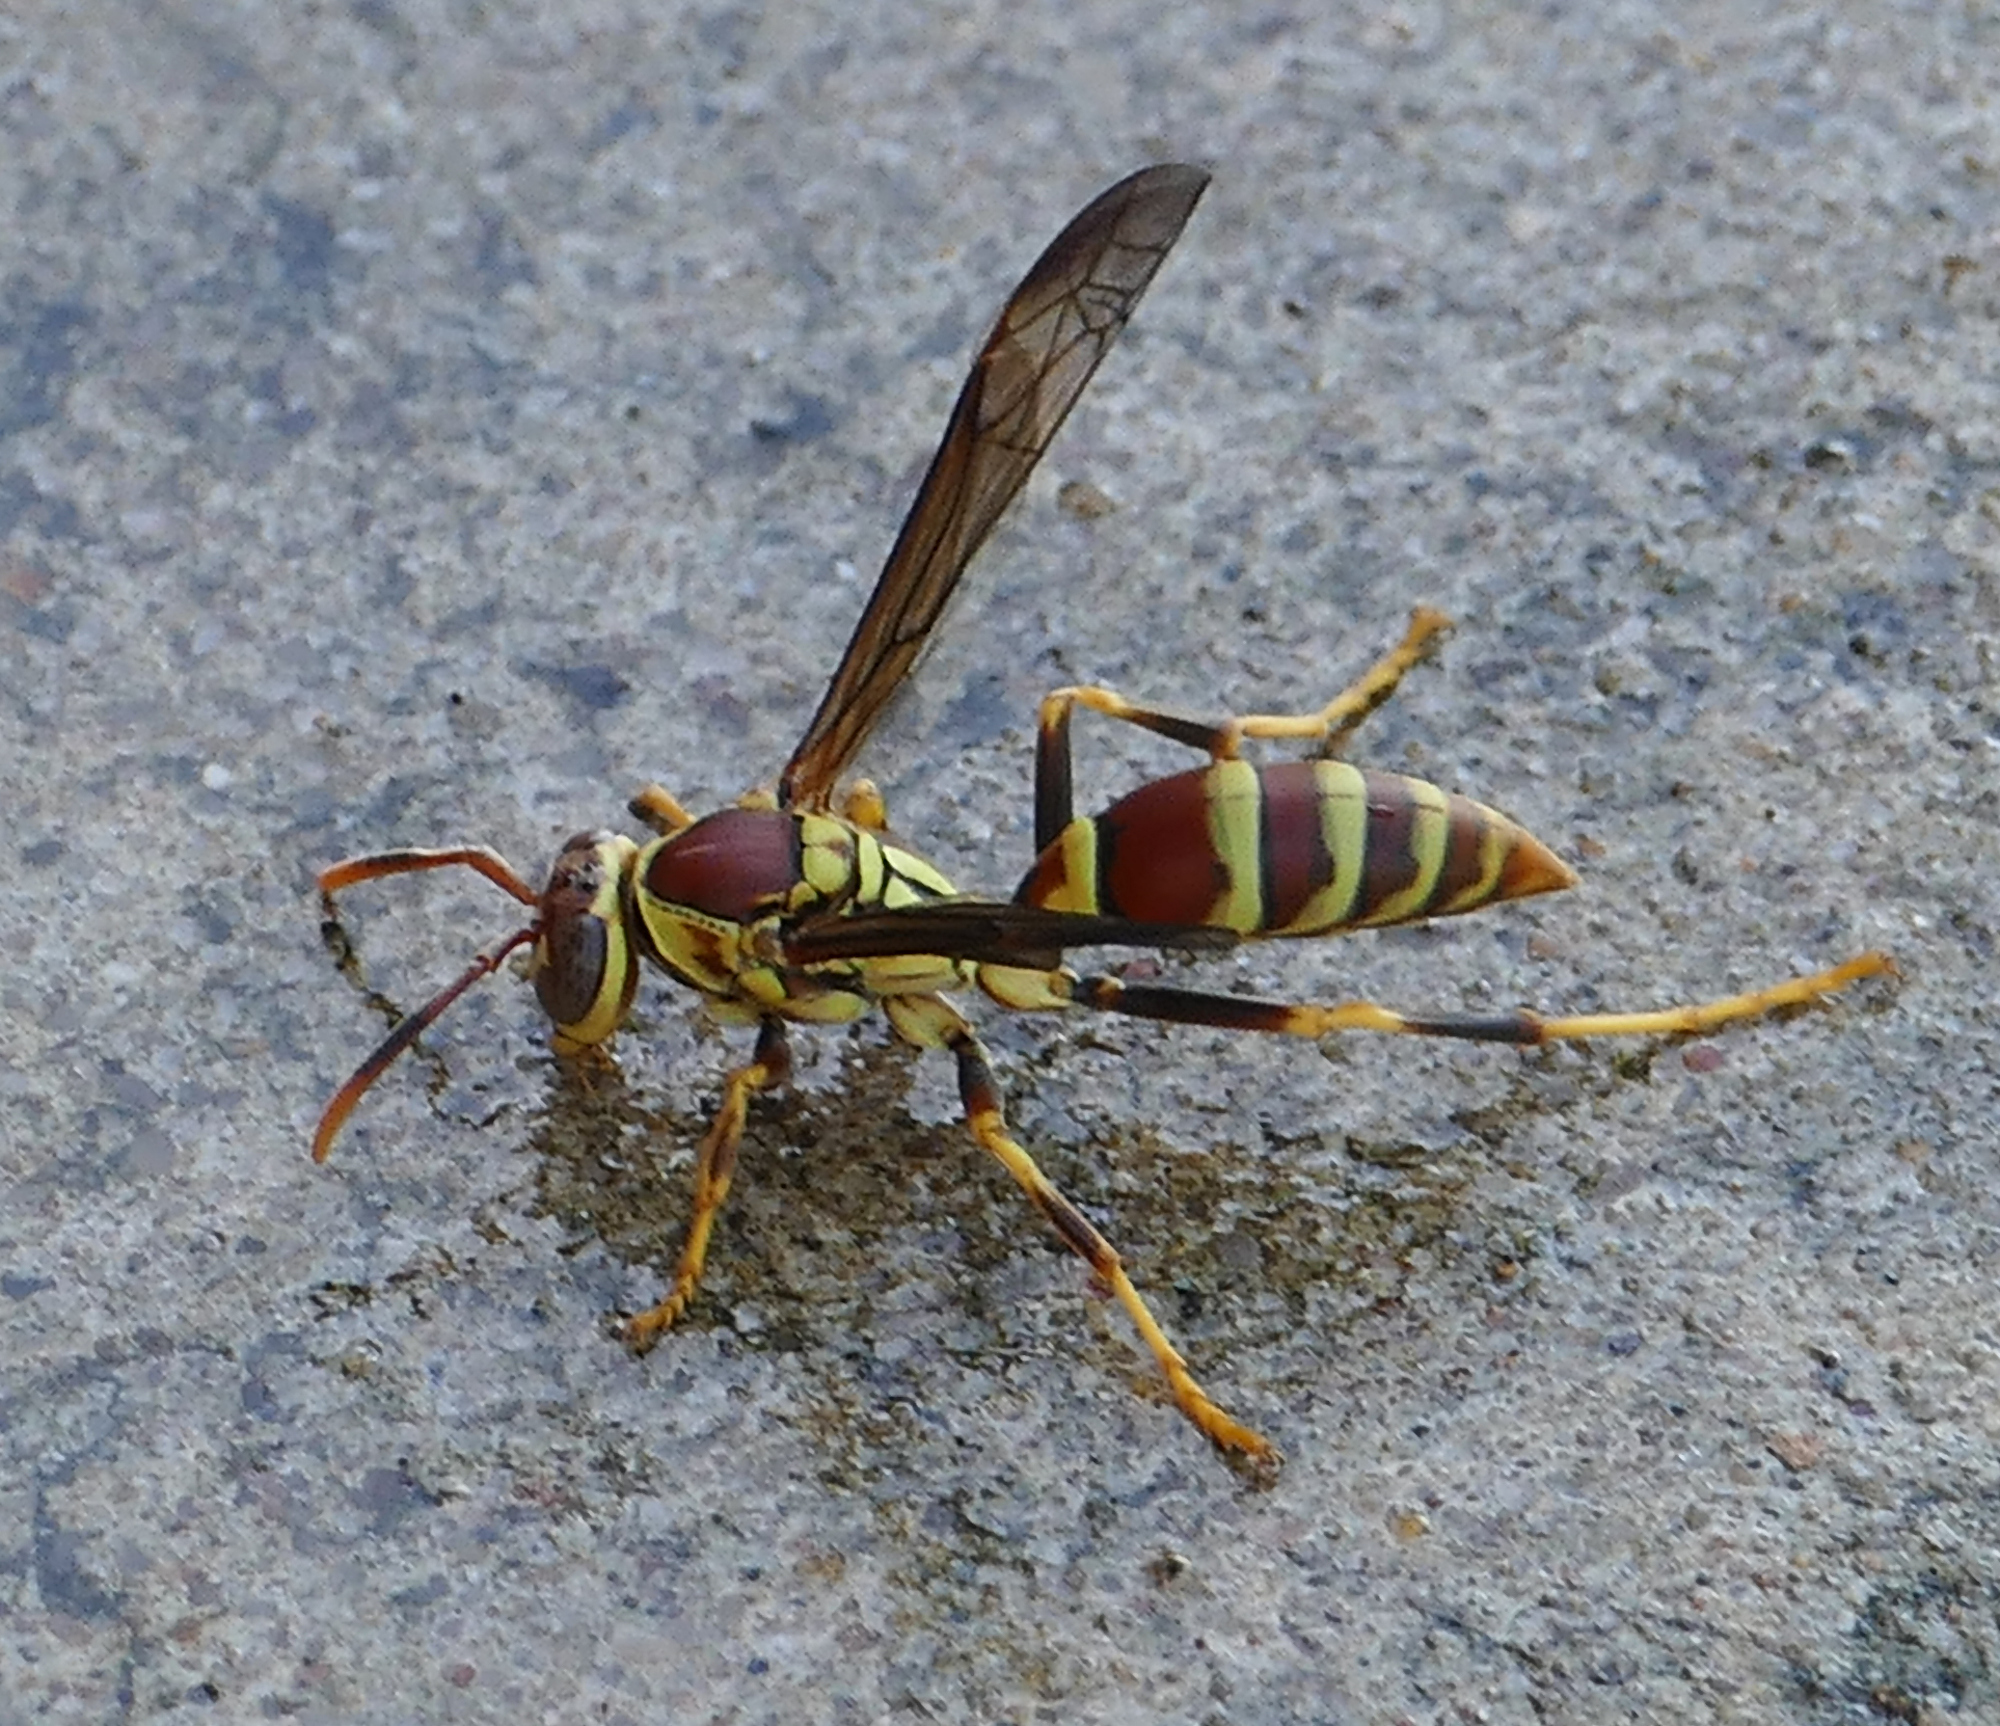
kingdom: Animalia
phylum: Arthropoda
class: Insecta
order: Hymenoptera
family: Eumenidae
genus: Polistes
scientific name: Polistes exclamans
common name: Paper wasp
